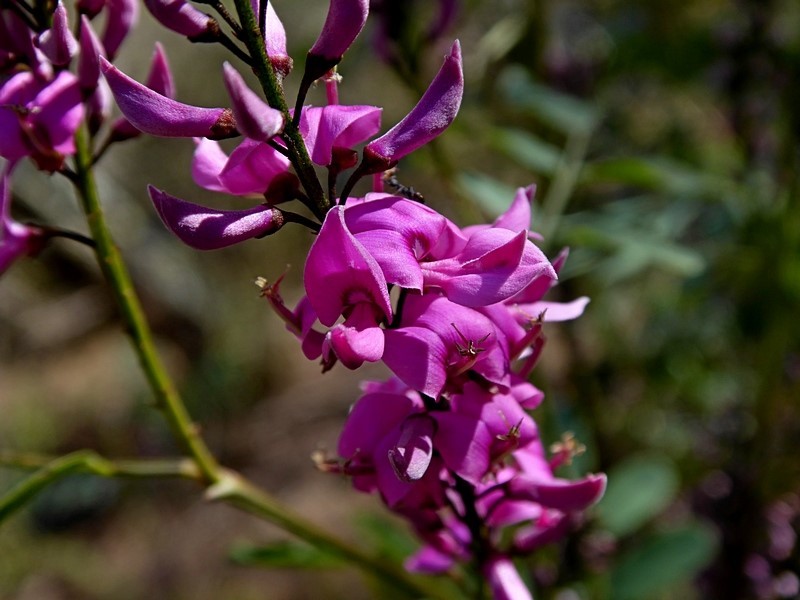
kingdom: Plantae
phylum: Tracheophyta
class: Magnoliopsida
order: Fabales
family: Fabaceae
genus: Indigofera
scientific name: Indigofera australis
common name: Australian indigo
